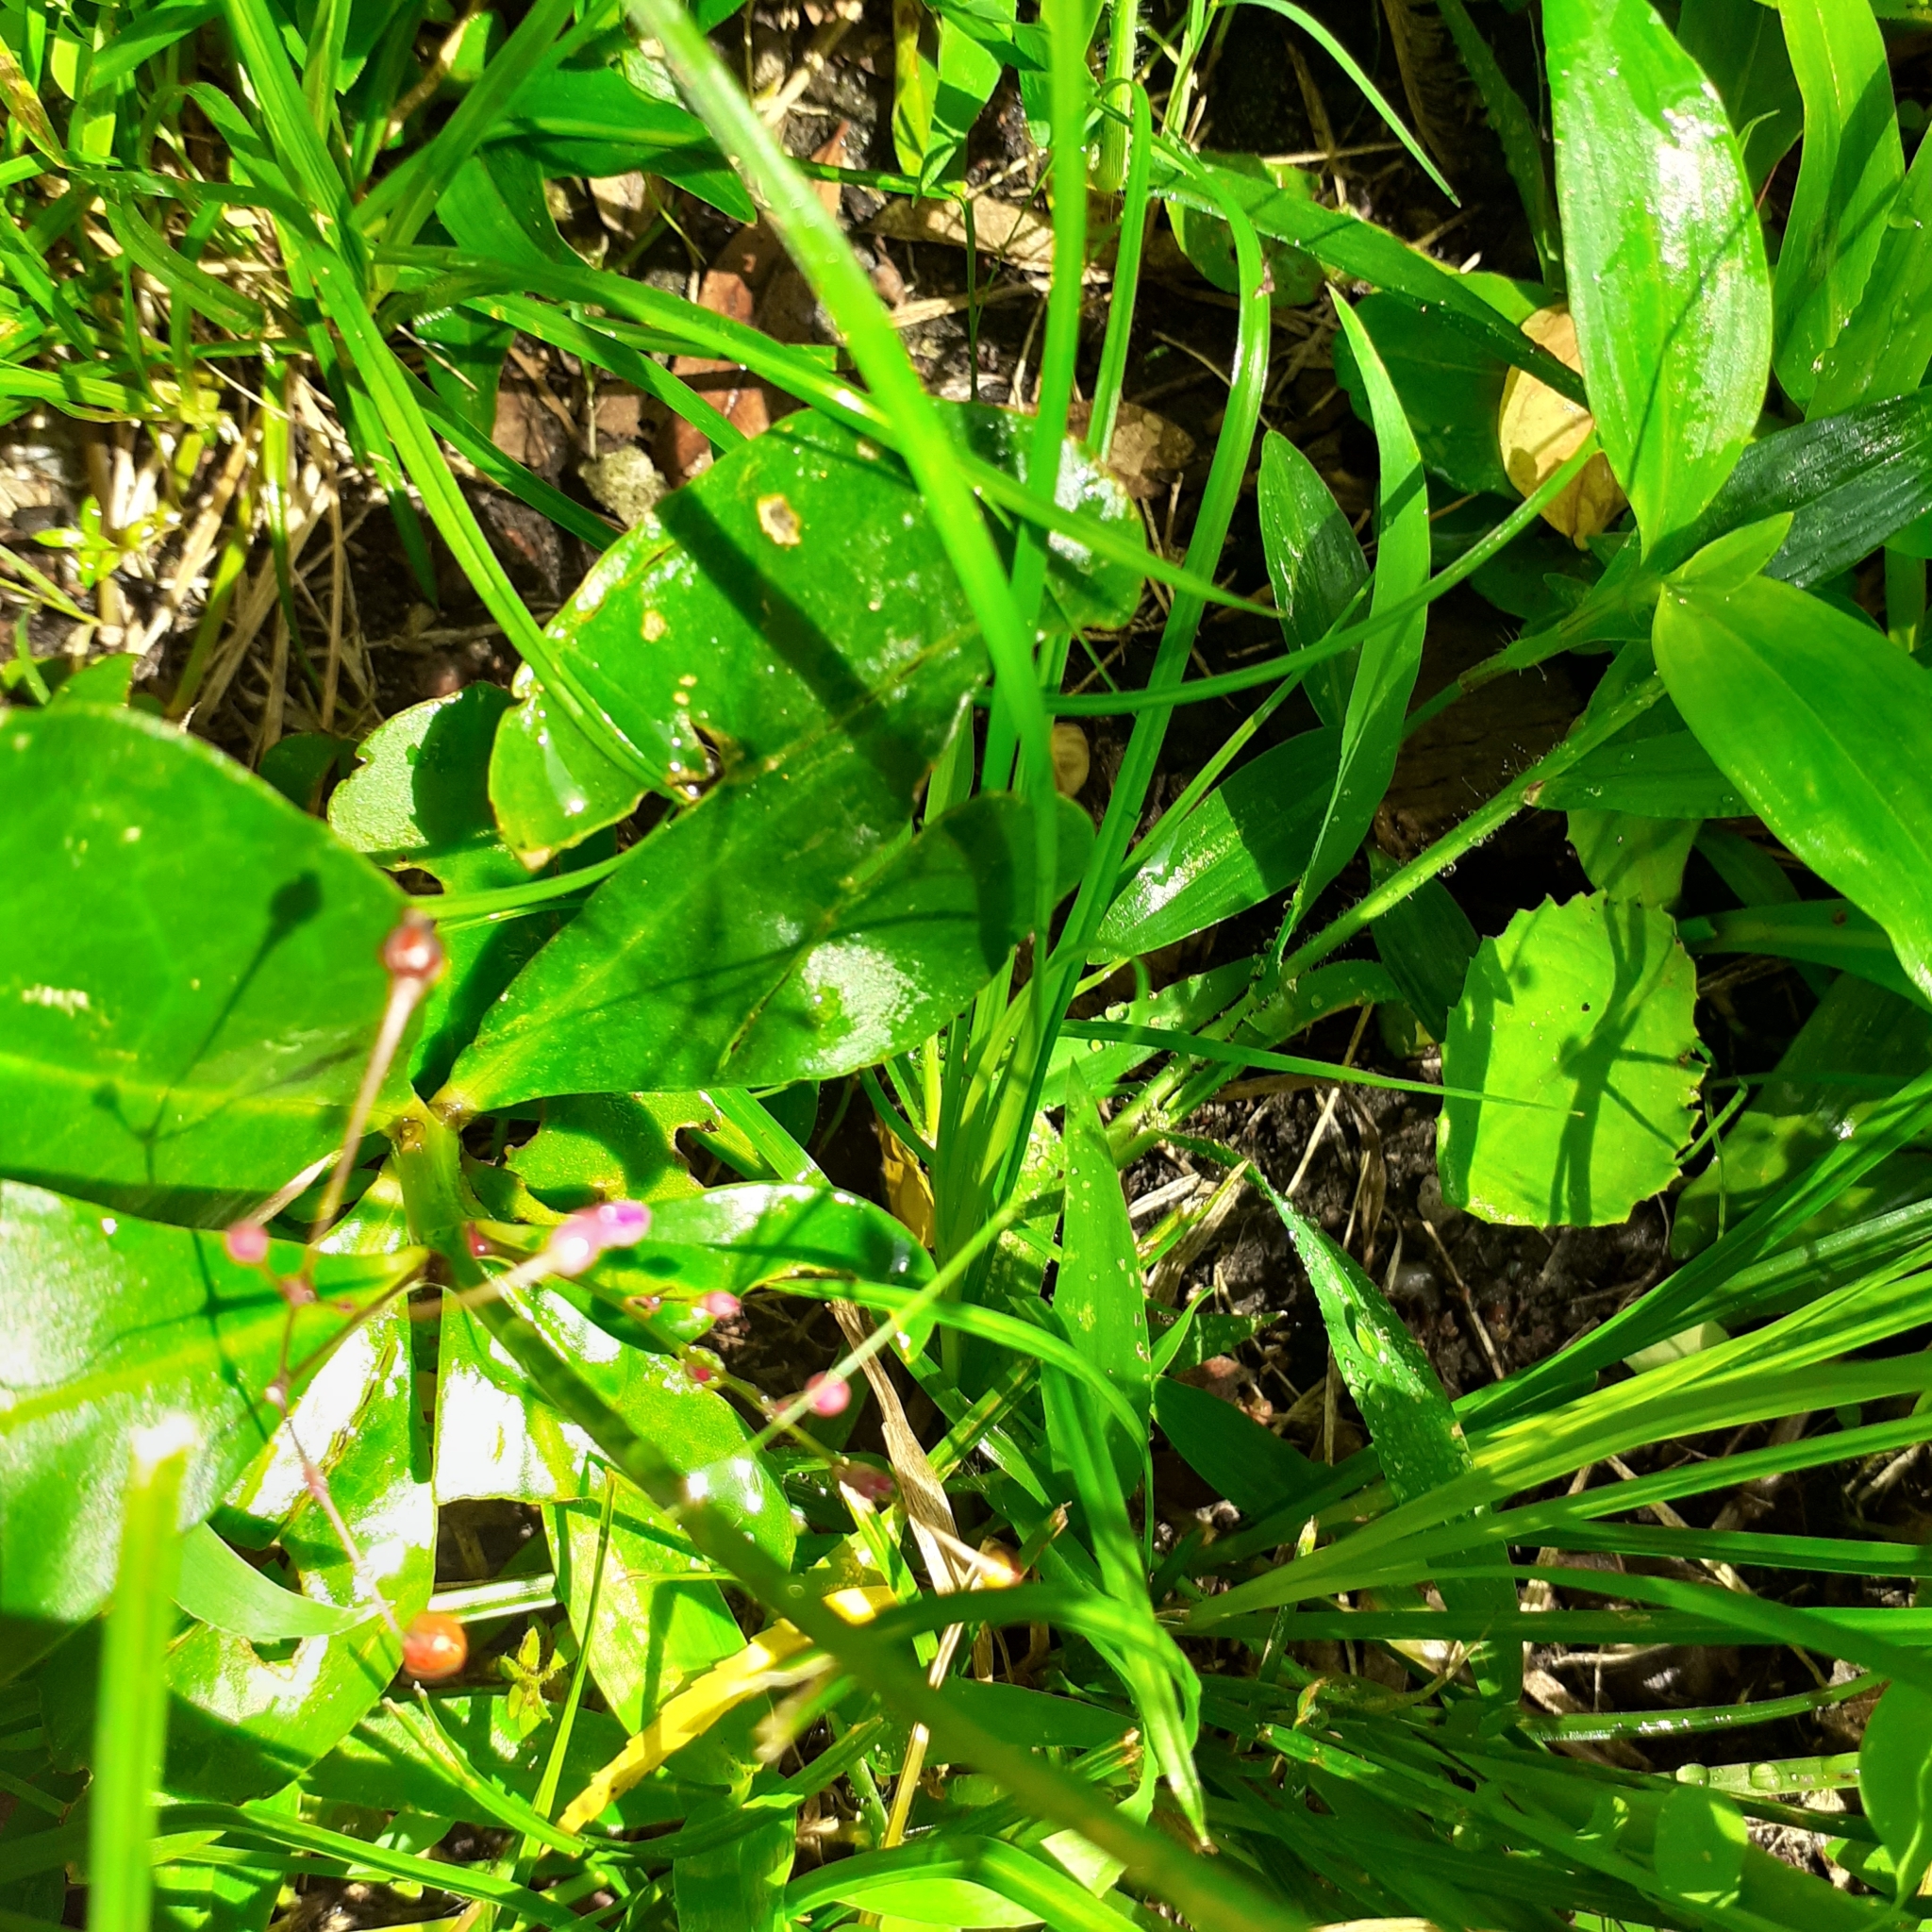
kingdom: Plantae
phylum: Tracheophyta
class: Magnoliopsida
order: Caryophyllales
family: Talinaceae
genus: Talinum
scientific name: Talinum paniculatum
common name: Jewels of opar
